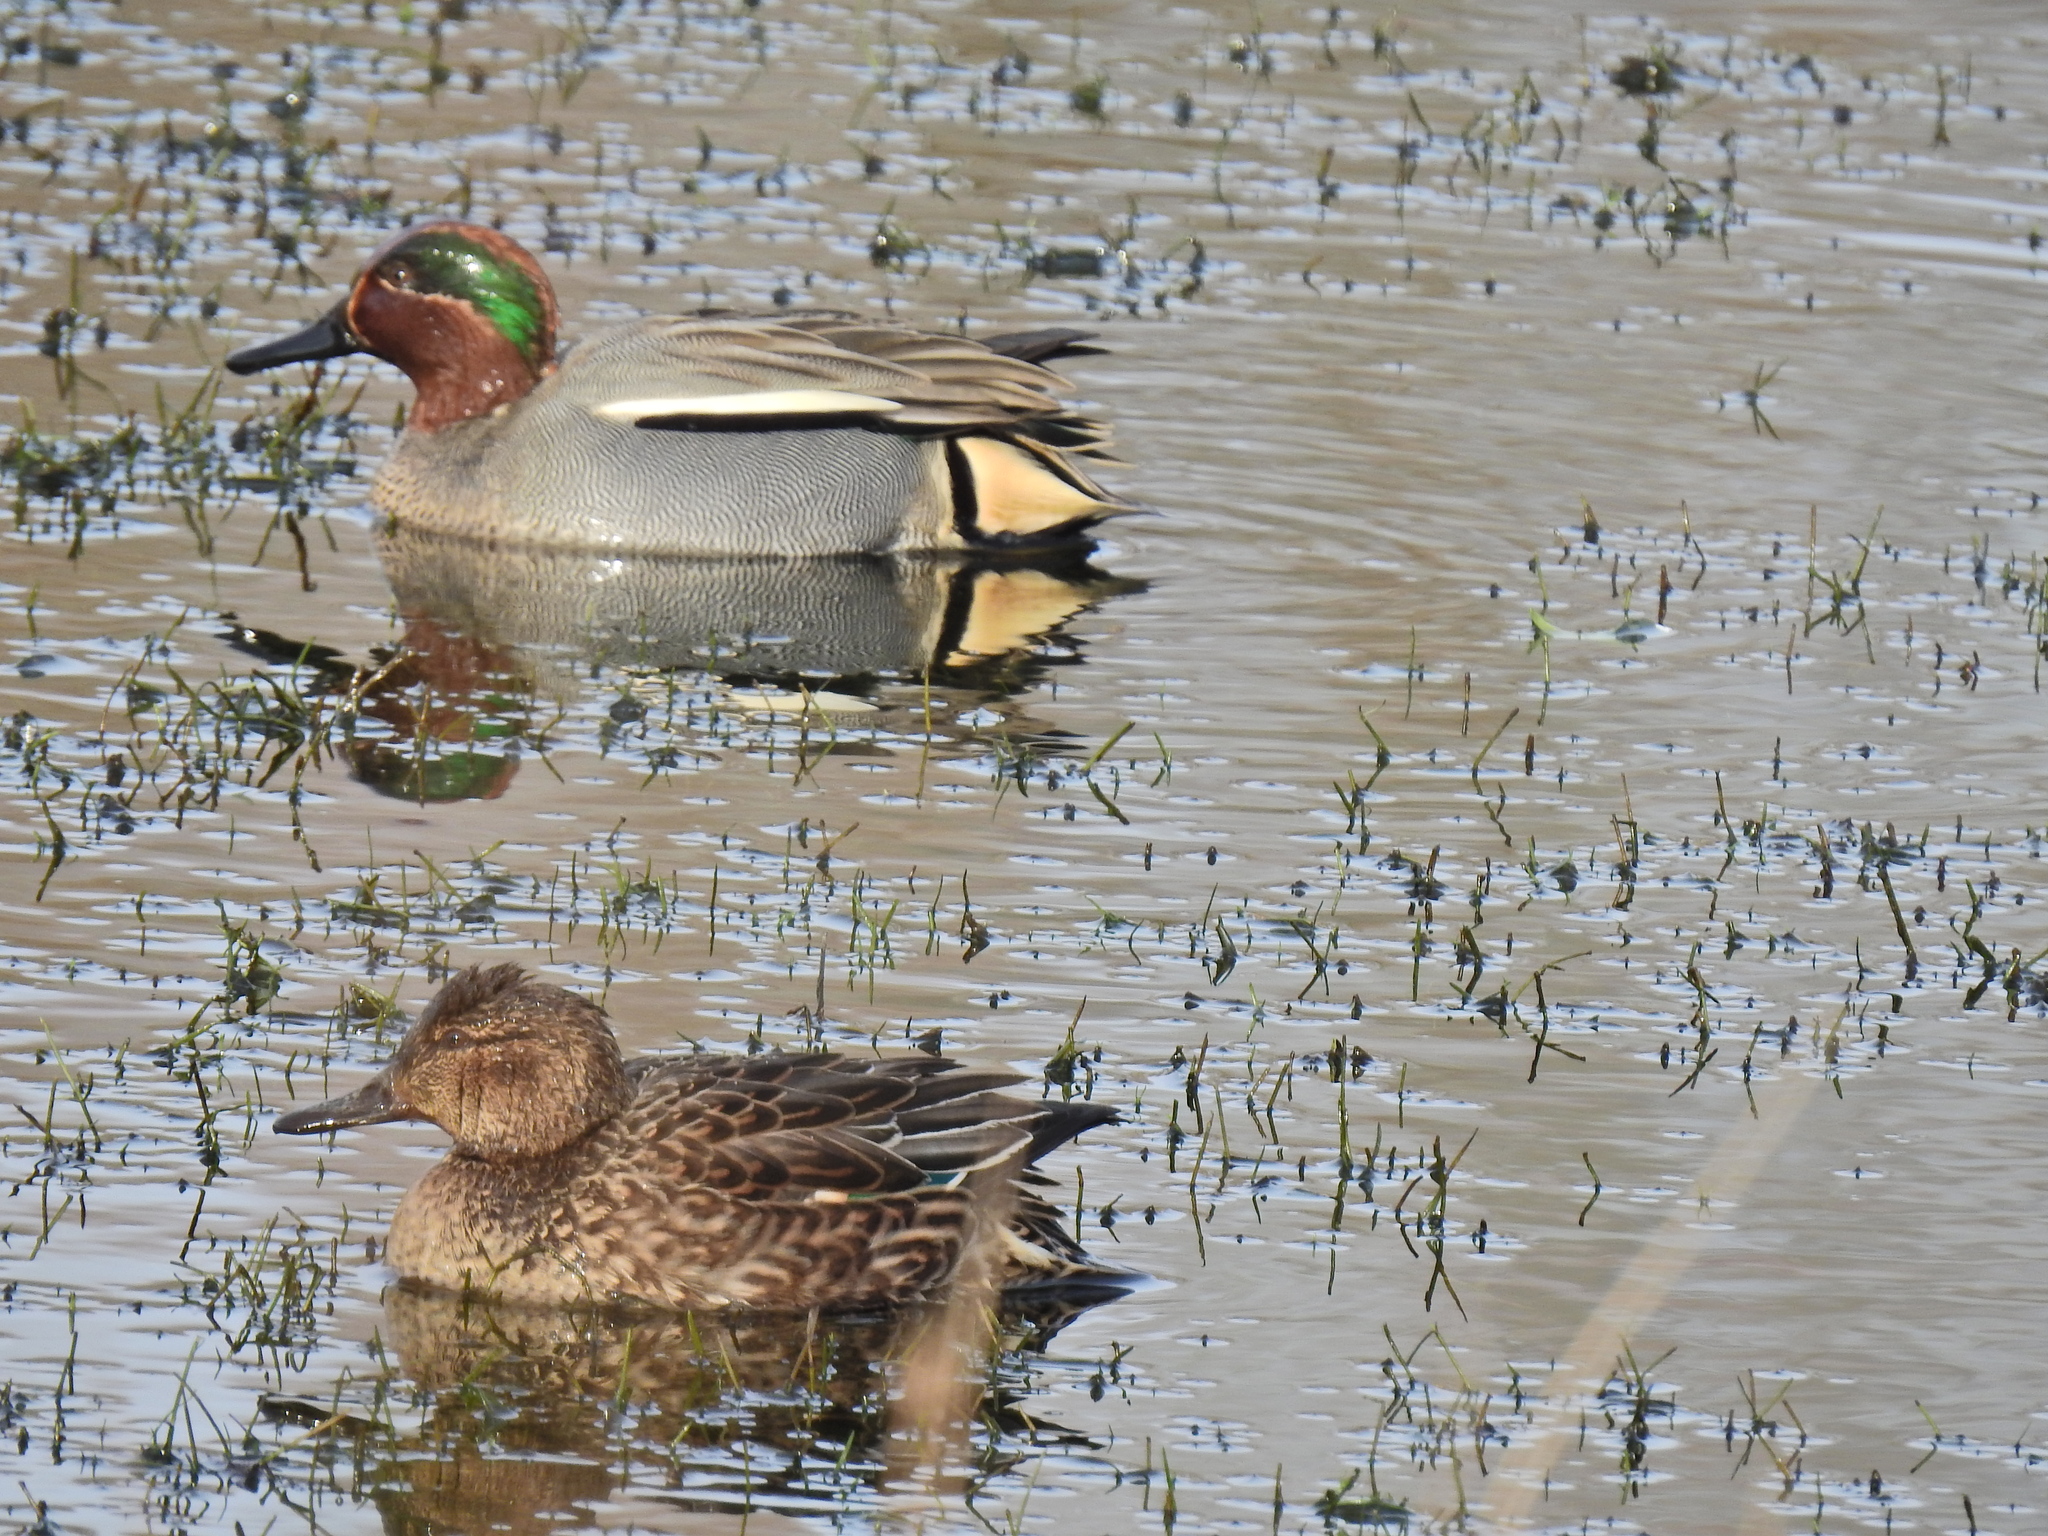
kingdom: Animalia
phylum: Chordata
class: Aves
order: Anseriformes
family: Anatidae
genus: Anas
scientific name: Anas crecca
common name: Eurasian teal
